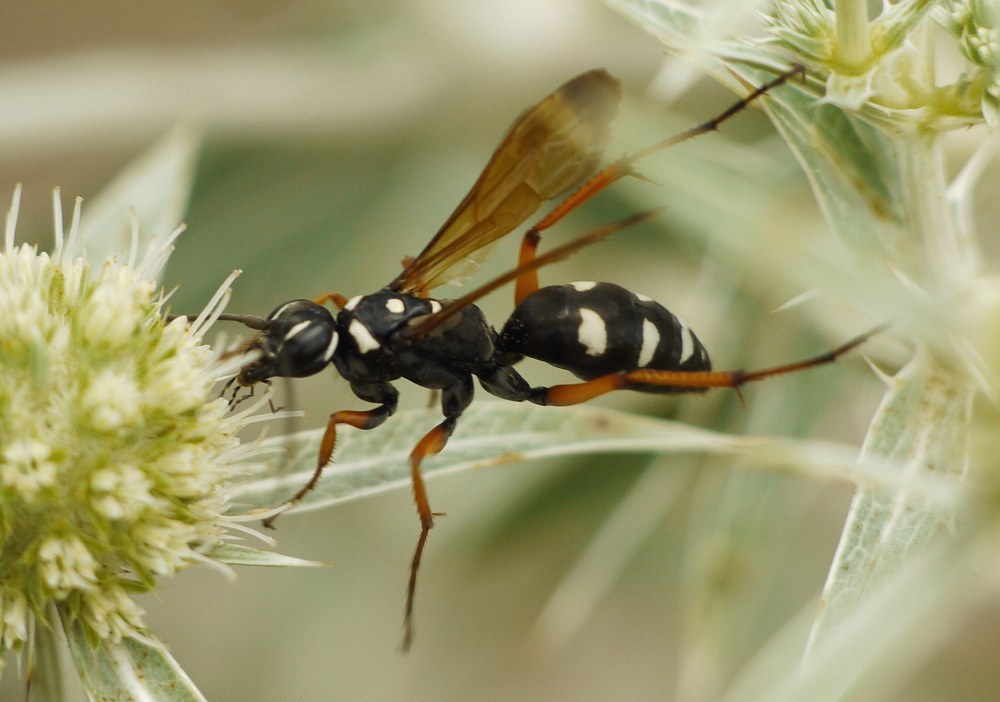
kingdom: Animalia
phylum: Arthropoda
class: Insecta
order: Hymenoptera
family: Pompilidae
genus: Cryptocheilus
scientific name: Cryptocheilus variabilis
